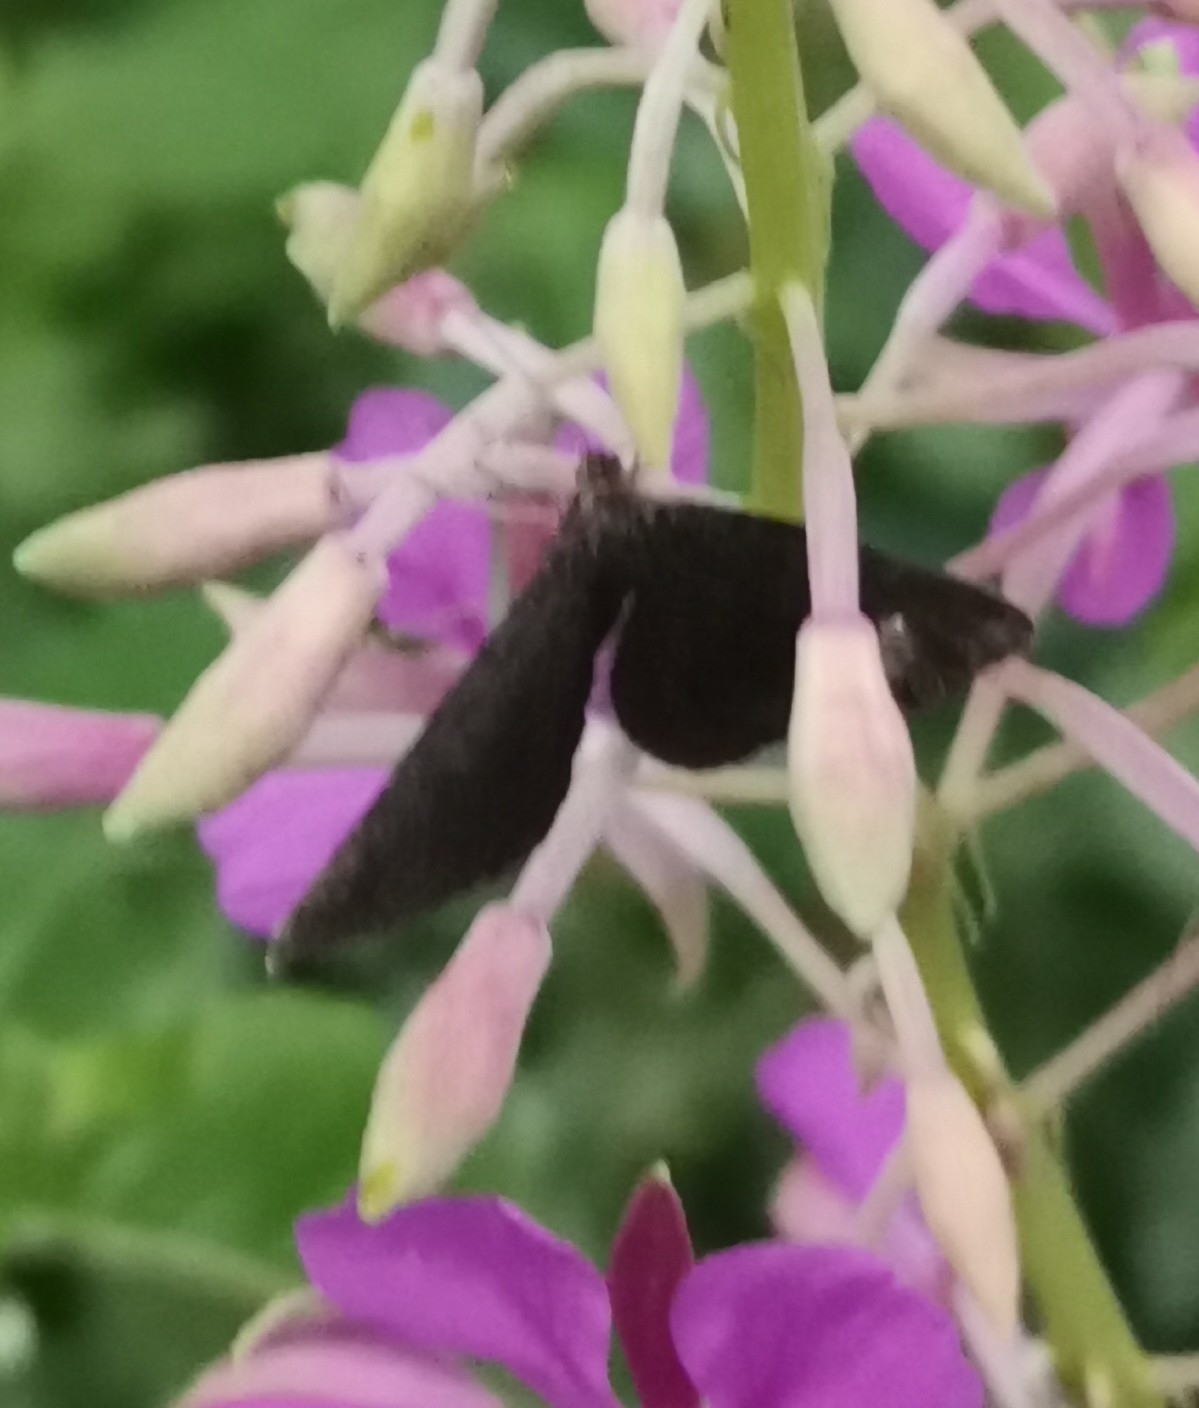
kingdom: Animalia
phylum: Arthropoda
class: Insecta
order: Lepidoptera
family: Geometridae
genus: Odezia
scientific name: Odezia atrata
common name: Chimney sweeper
